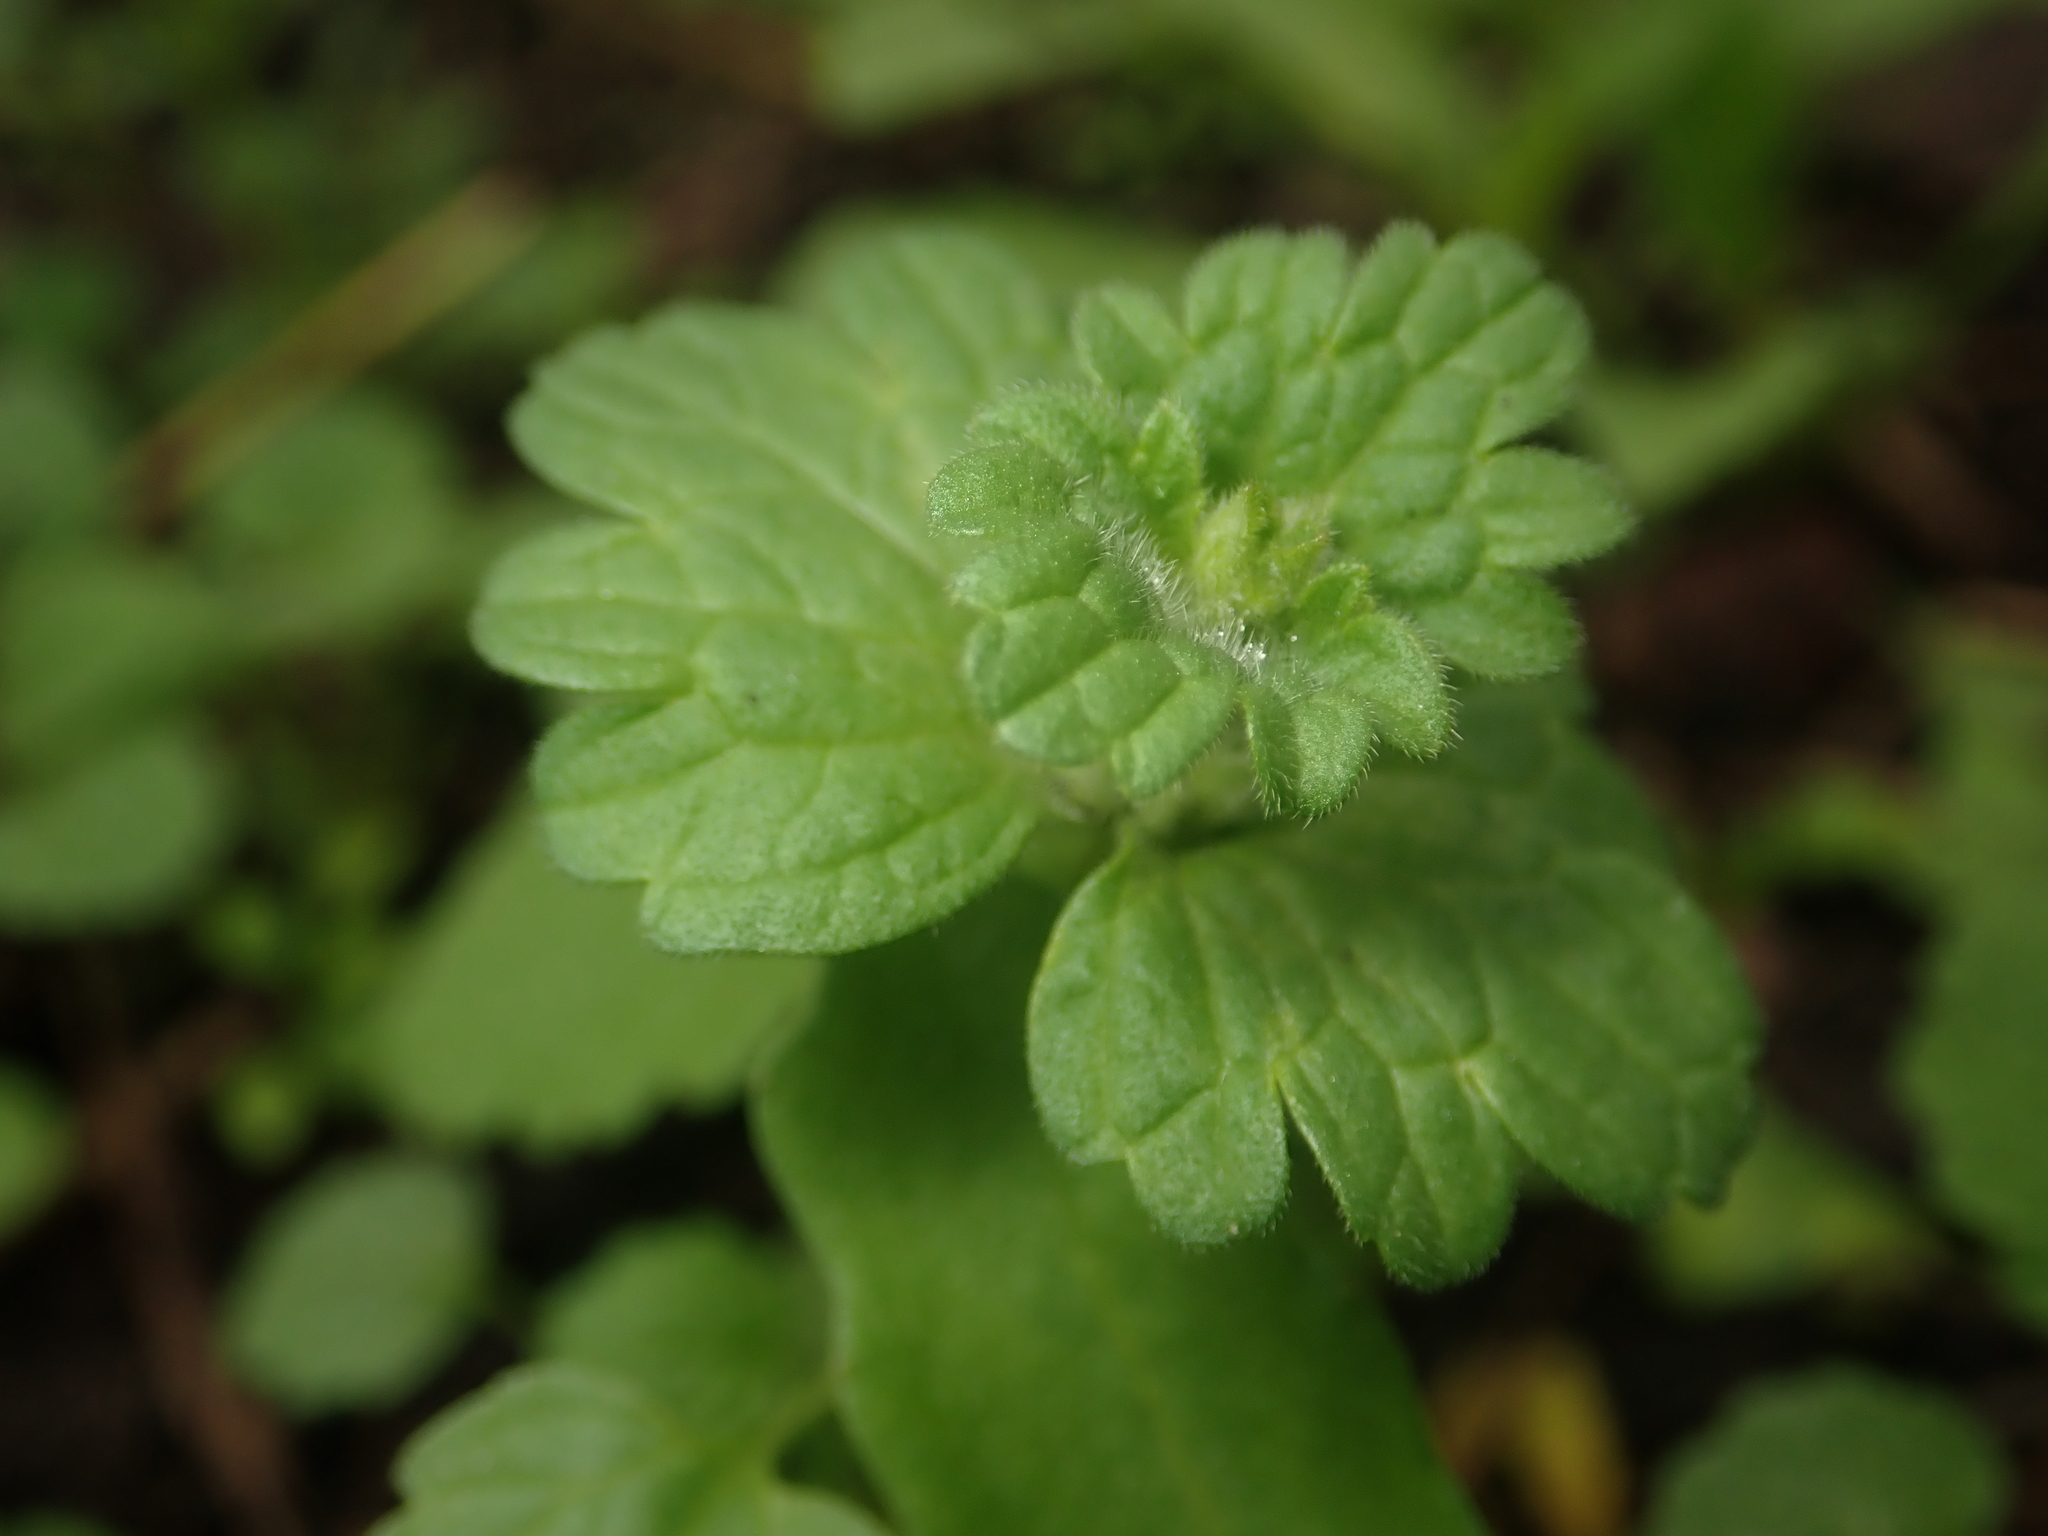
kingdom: Plantae
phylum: Tracheophyta
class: Magnoliopsida
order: Lamiales
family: Lamiaceae
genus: Lamium
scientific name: Lamium amplexicaule
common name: Henbit dead-nettle
